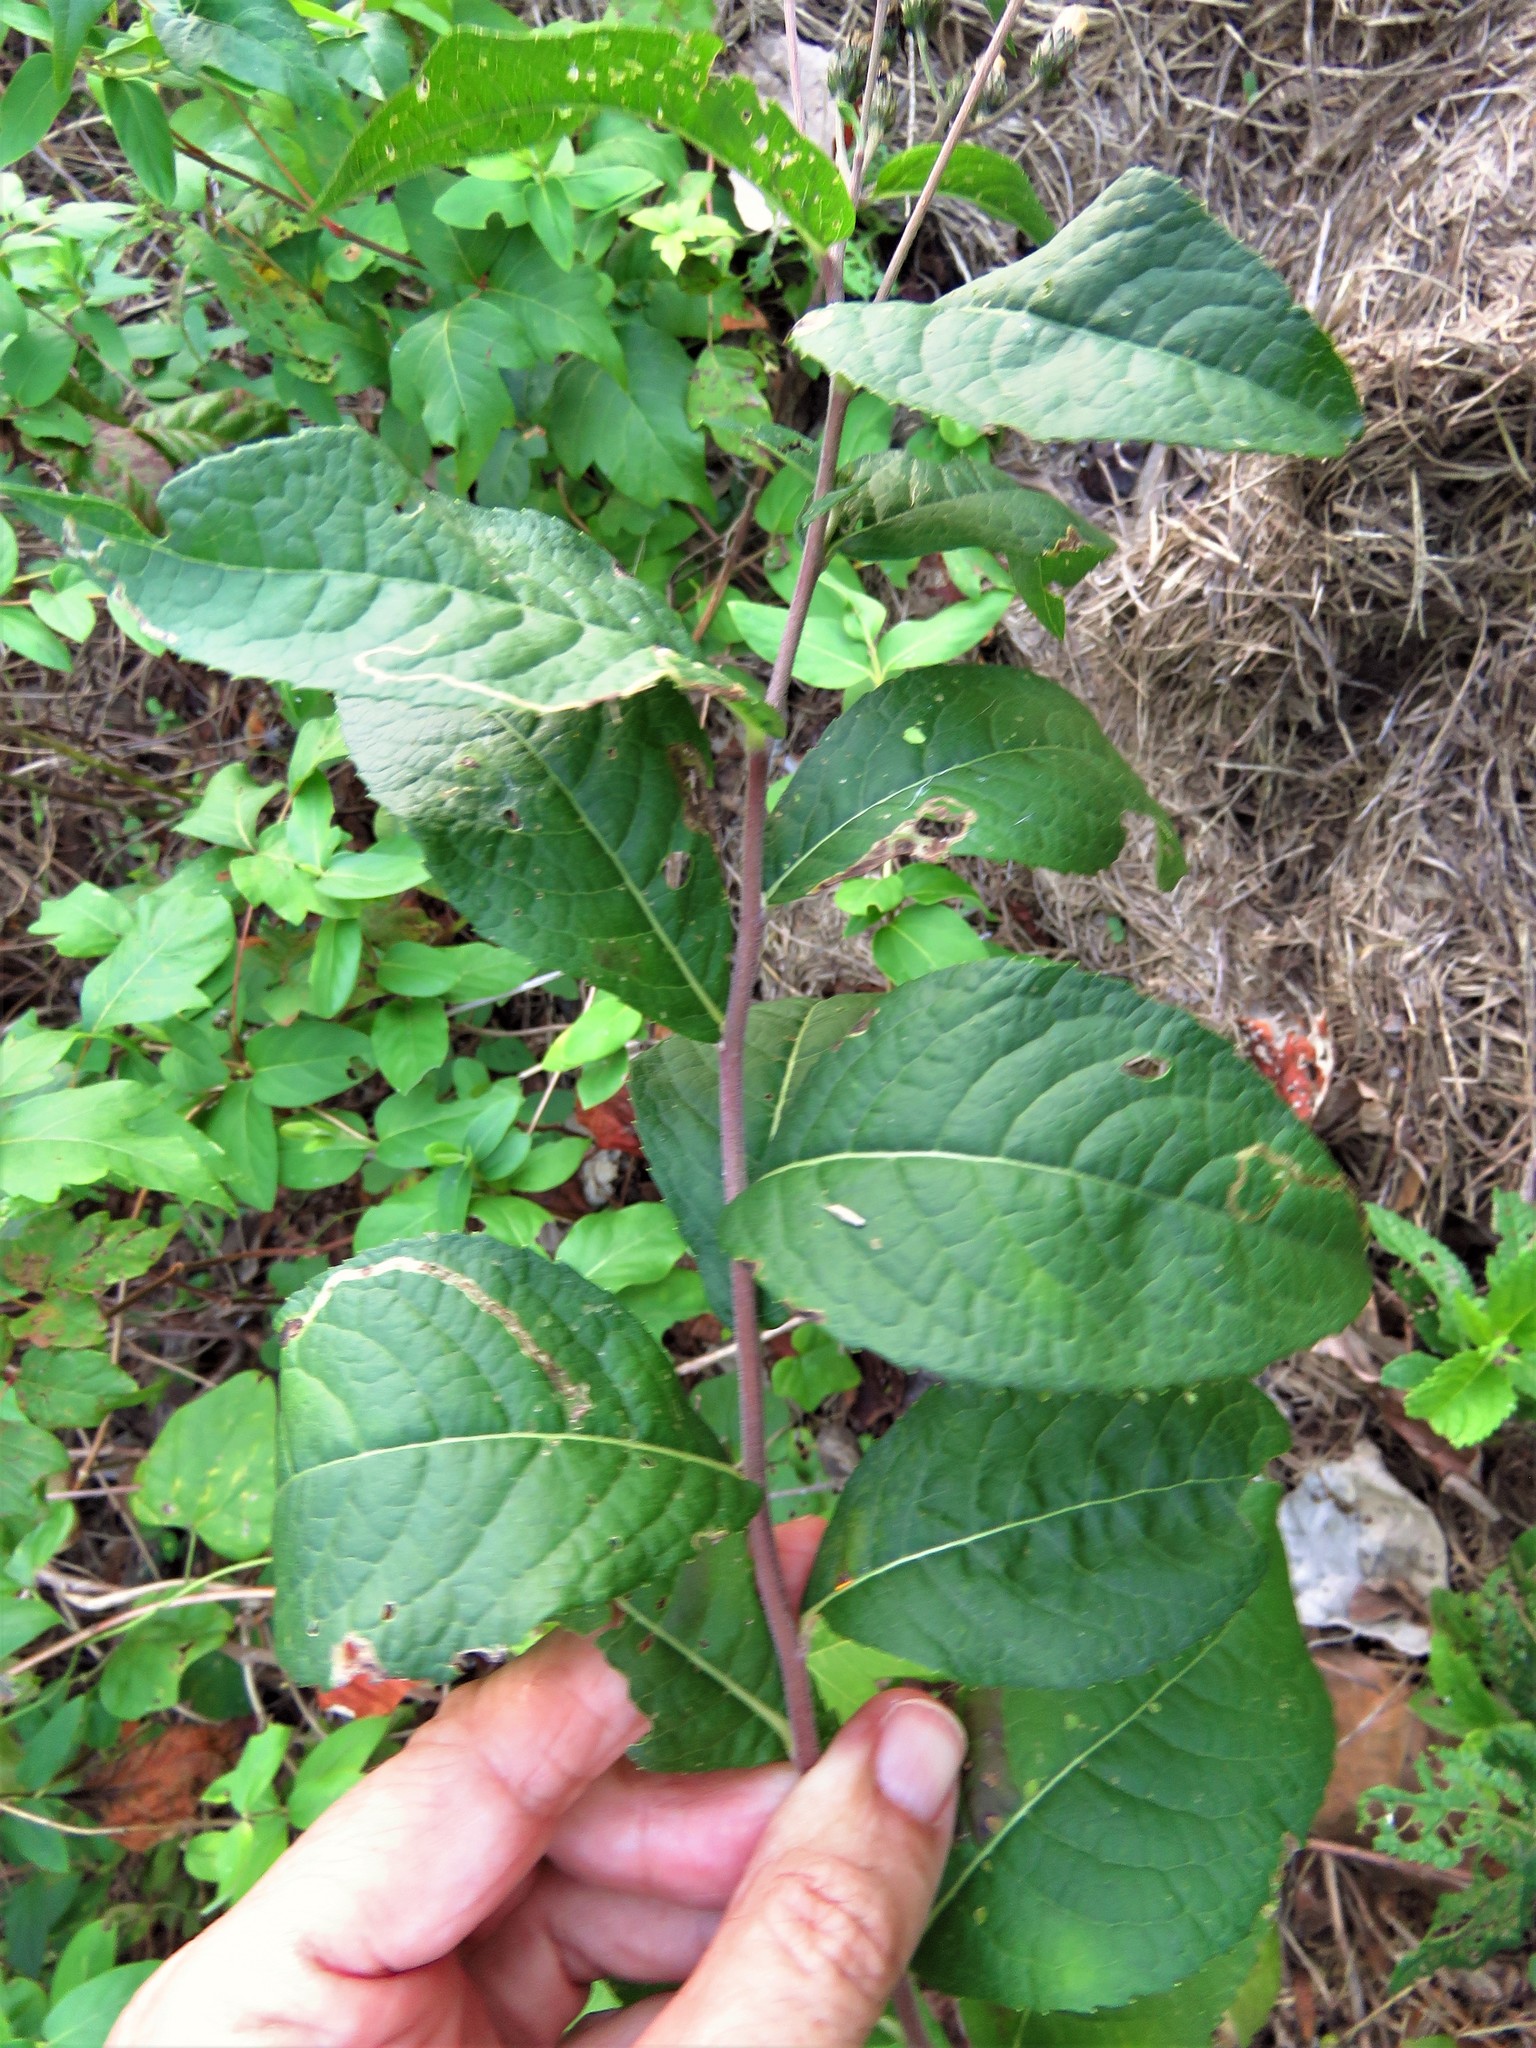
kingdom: Plantae
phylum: Tracheophyta
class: Magnoliopsida
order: Asterales
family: Asteraceae
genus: Vernonia
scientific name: Vernonia baldwinii
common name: Western ironweed
